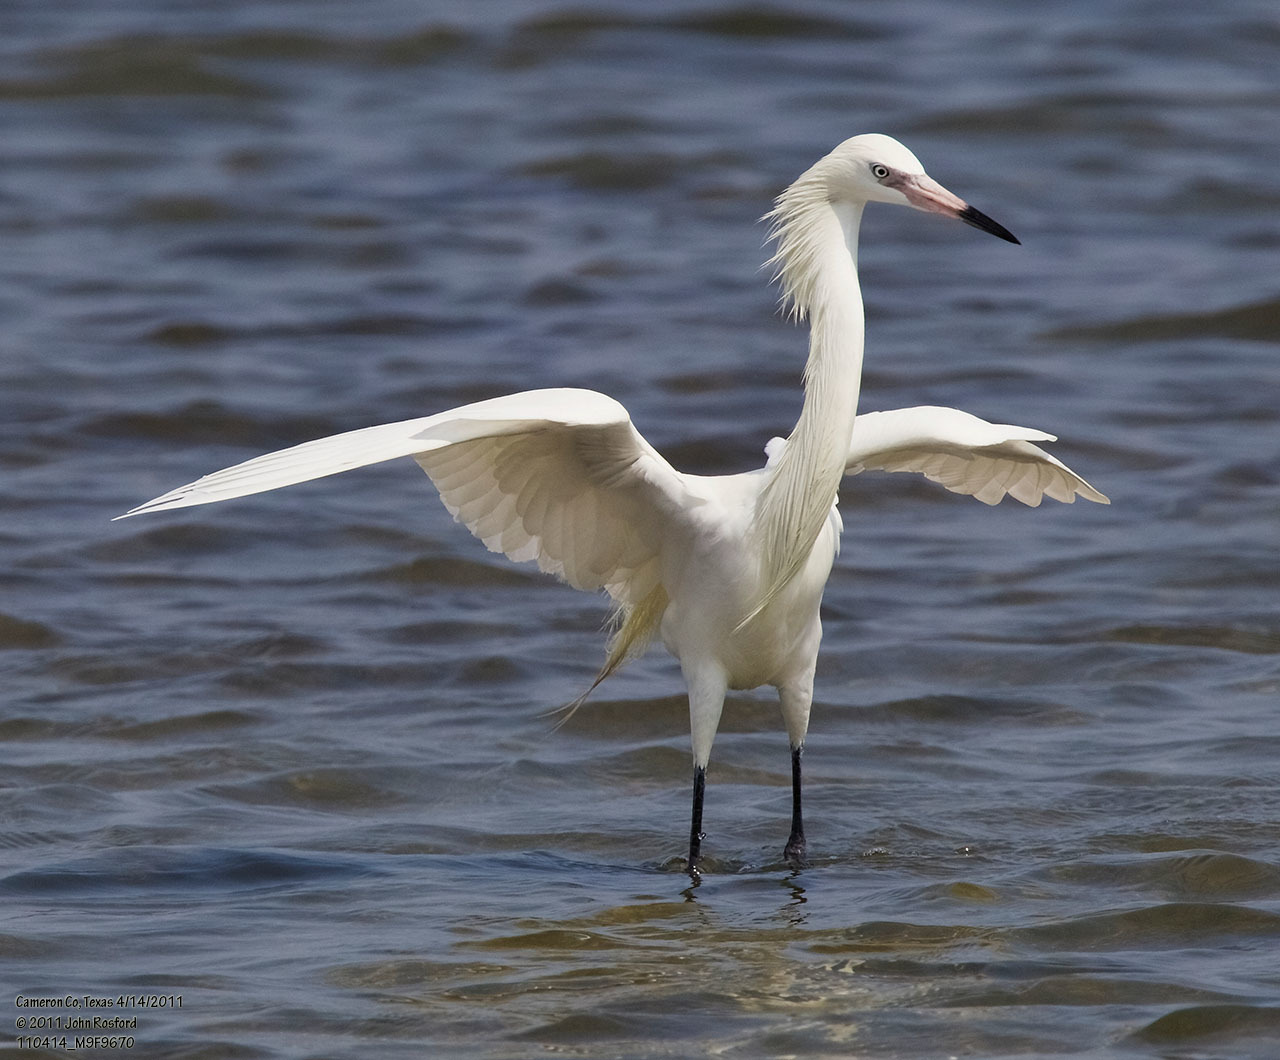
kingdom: Animalia
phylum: Chordata
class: Aves
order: Pelecaniformes
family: Ardeidae
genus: Egretta
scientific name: Egretta rufescens
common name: Reddish egret
